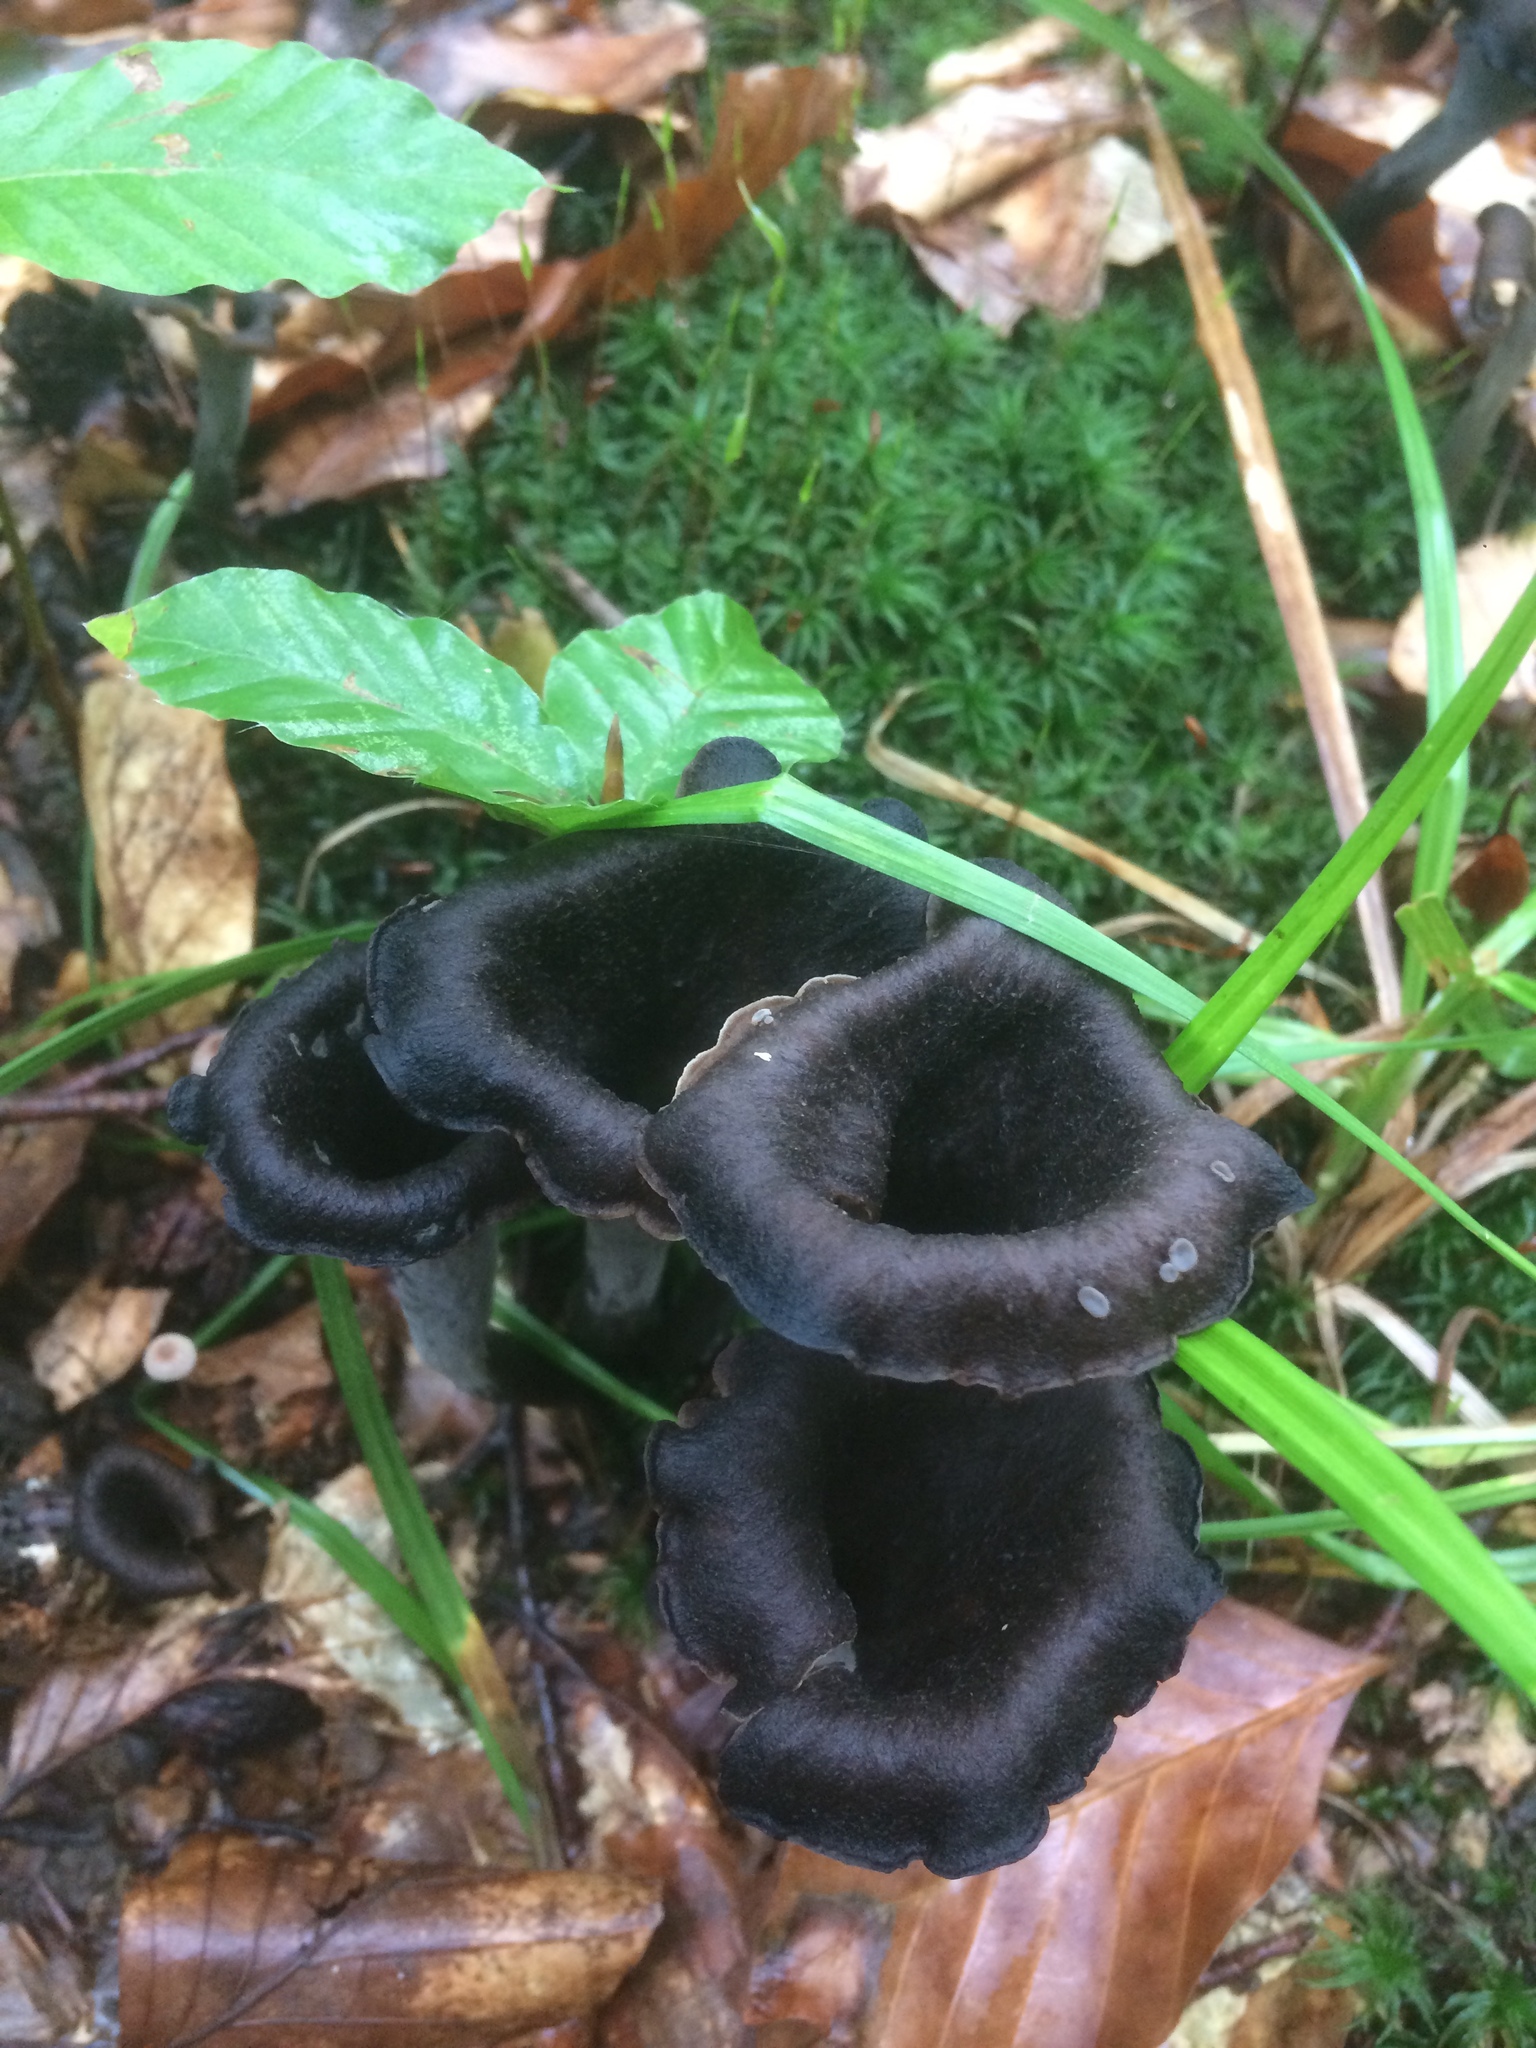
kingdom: Fungi
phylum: Basidiomycota
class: Agaricomycetes
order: Cantharellales
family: Hydnaceae
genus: Craterellus
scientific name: Craterellus cornucopioides
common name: Horn of plenty
